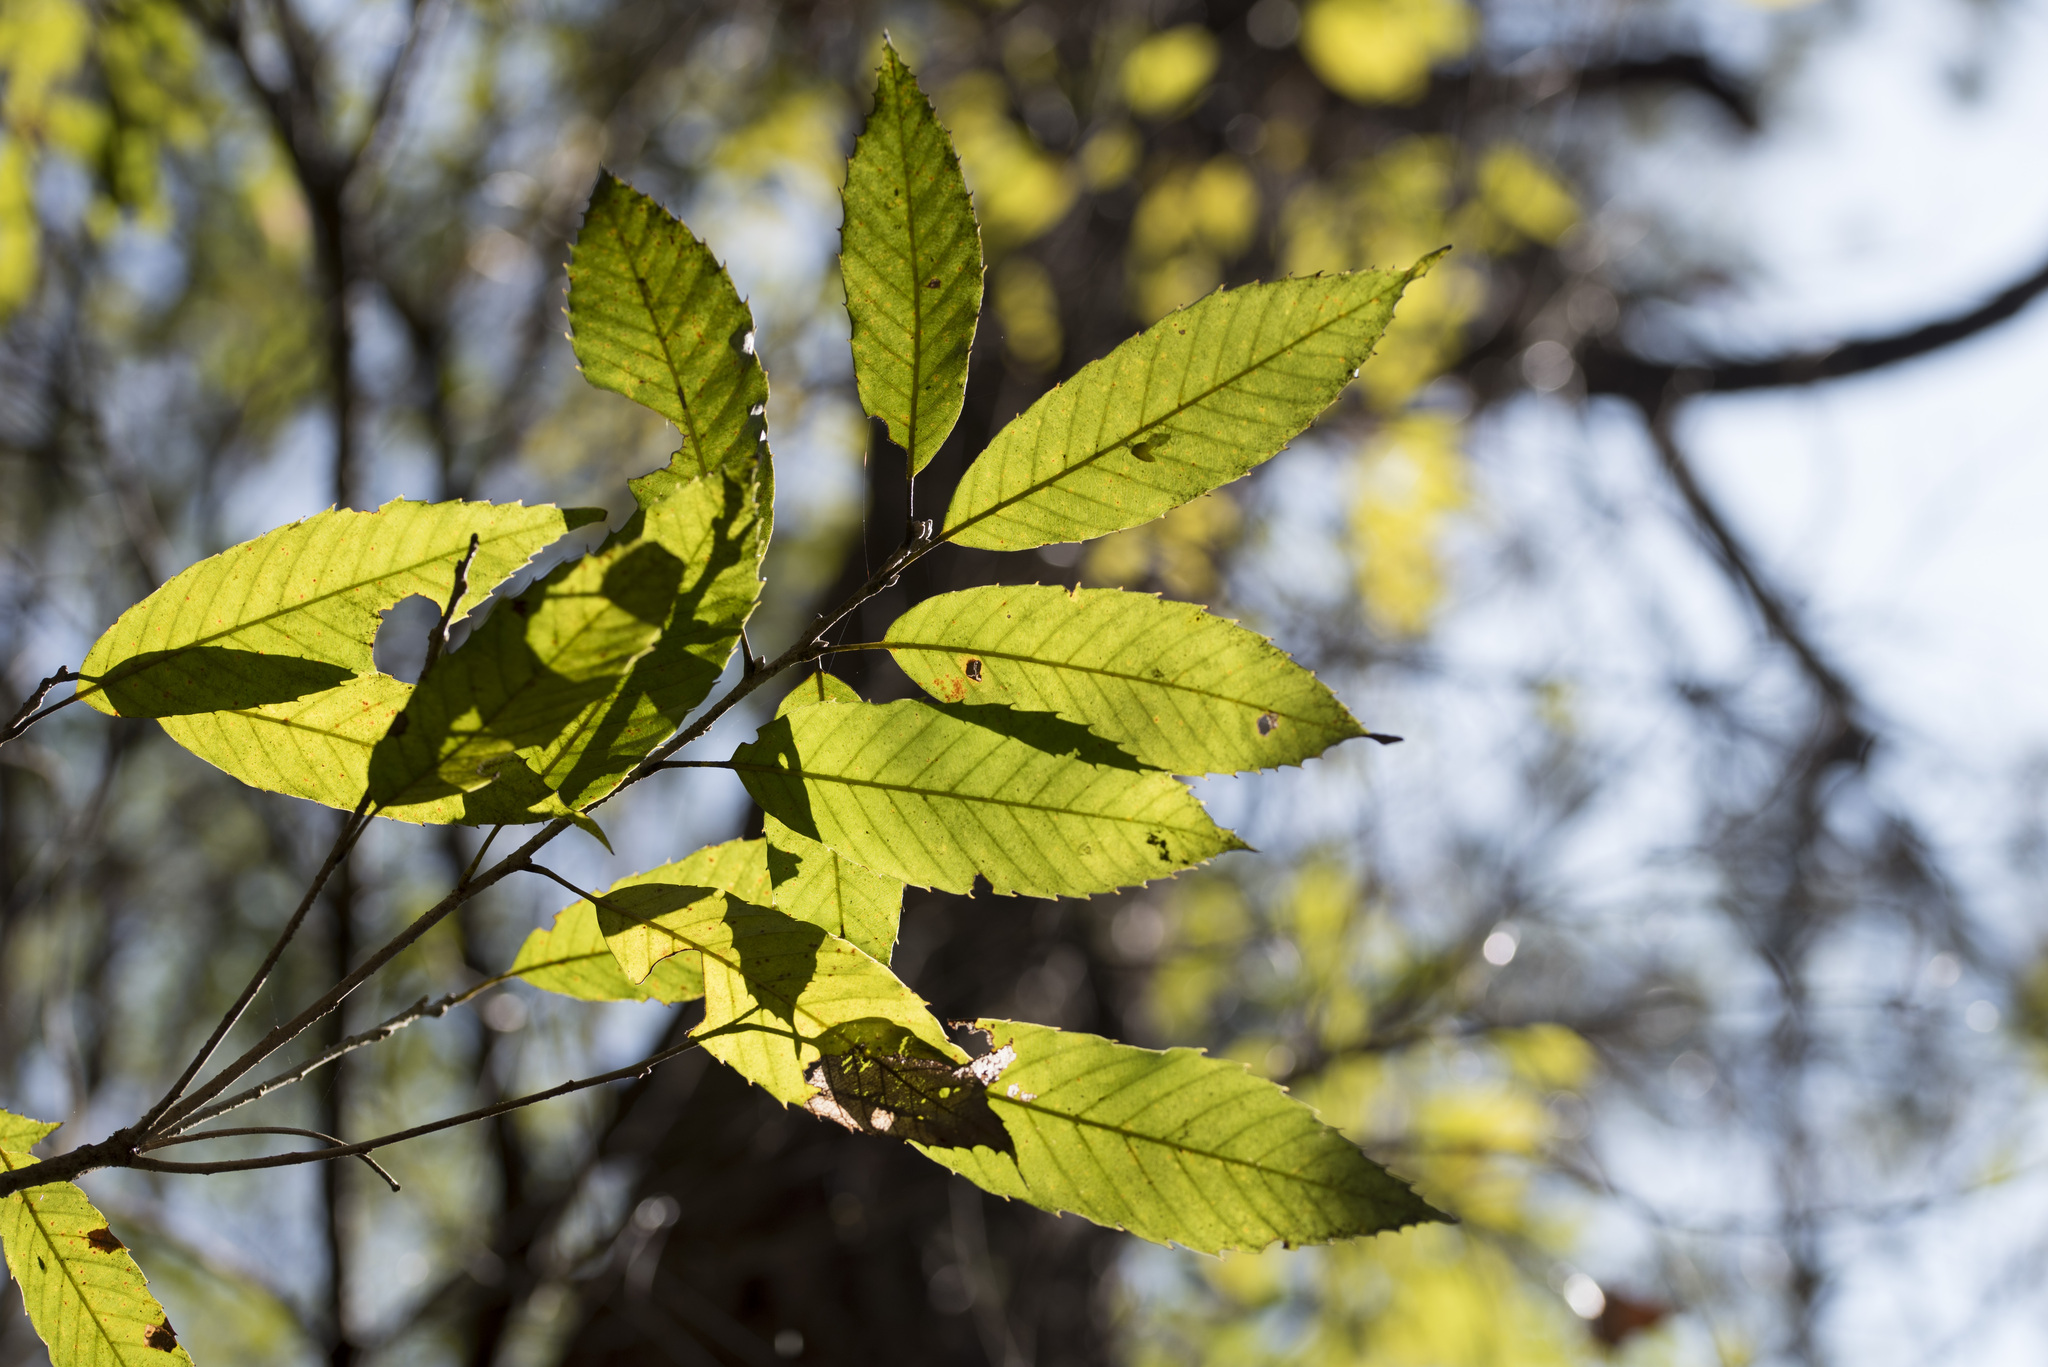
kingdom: Plantae
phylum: Tracheophyta
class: Magnoliopsida
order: Fagales
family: Fagaceae
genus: Quercus
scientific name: Quercus salicina
